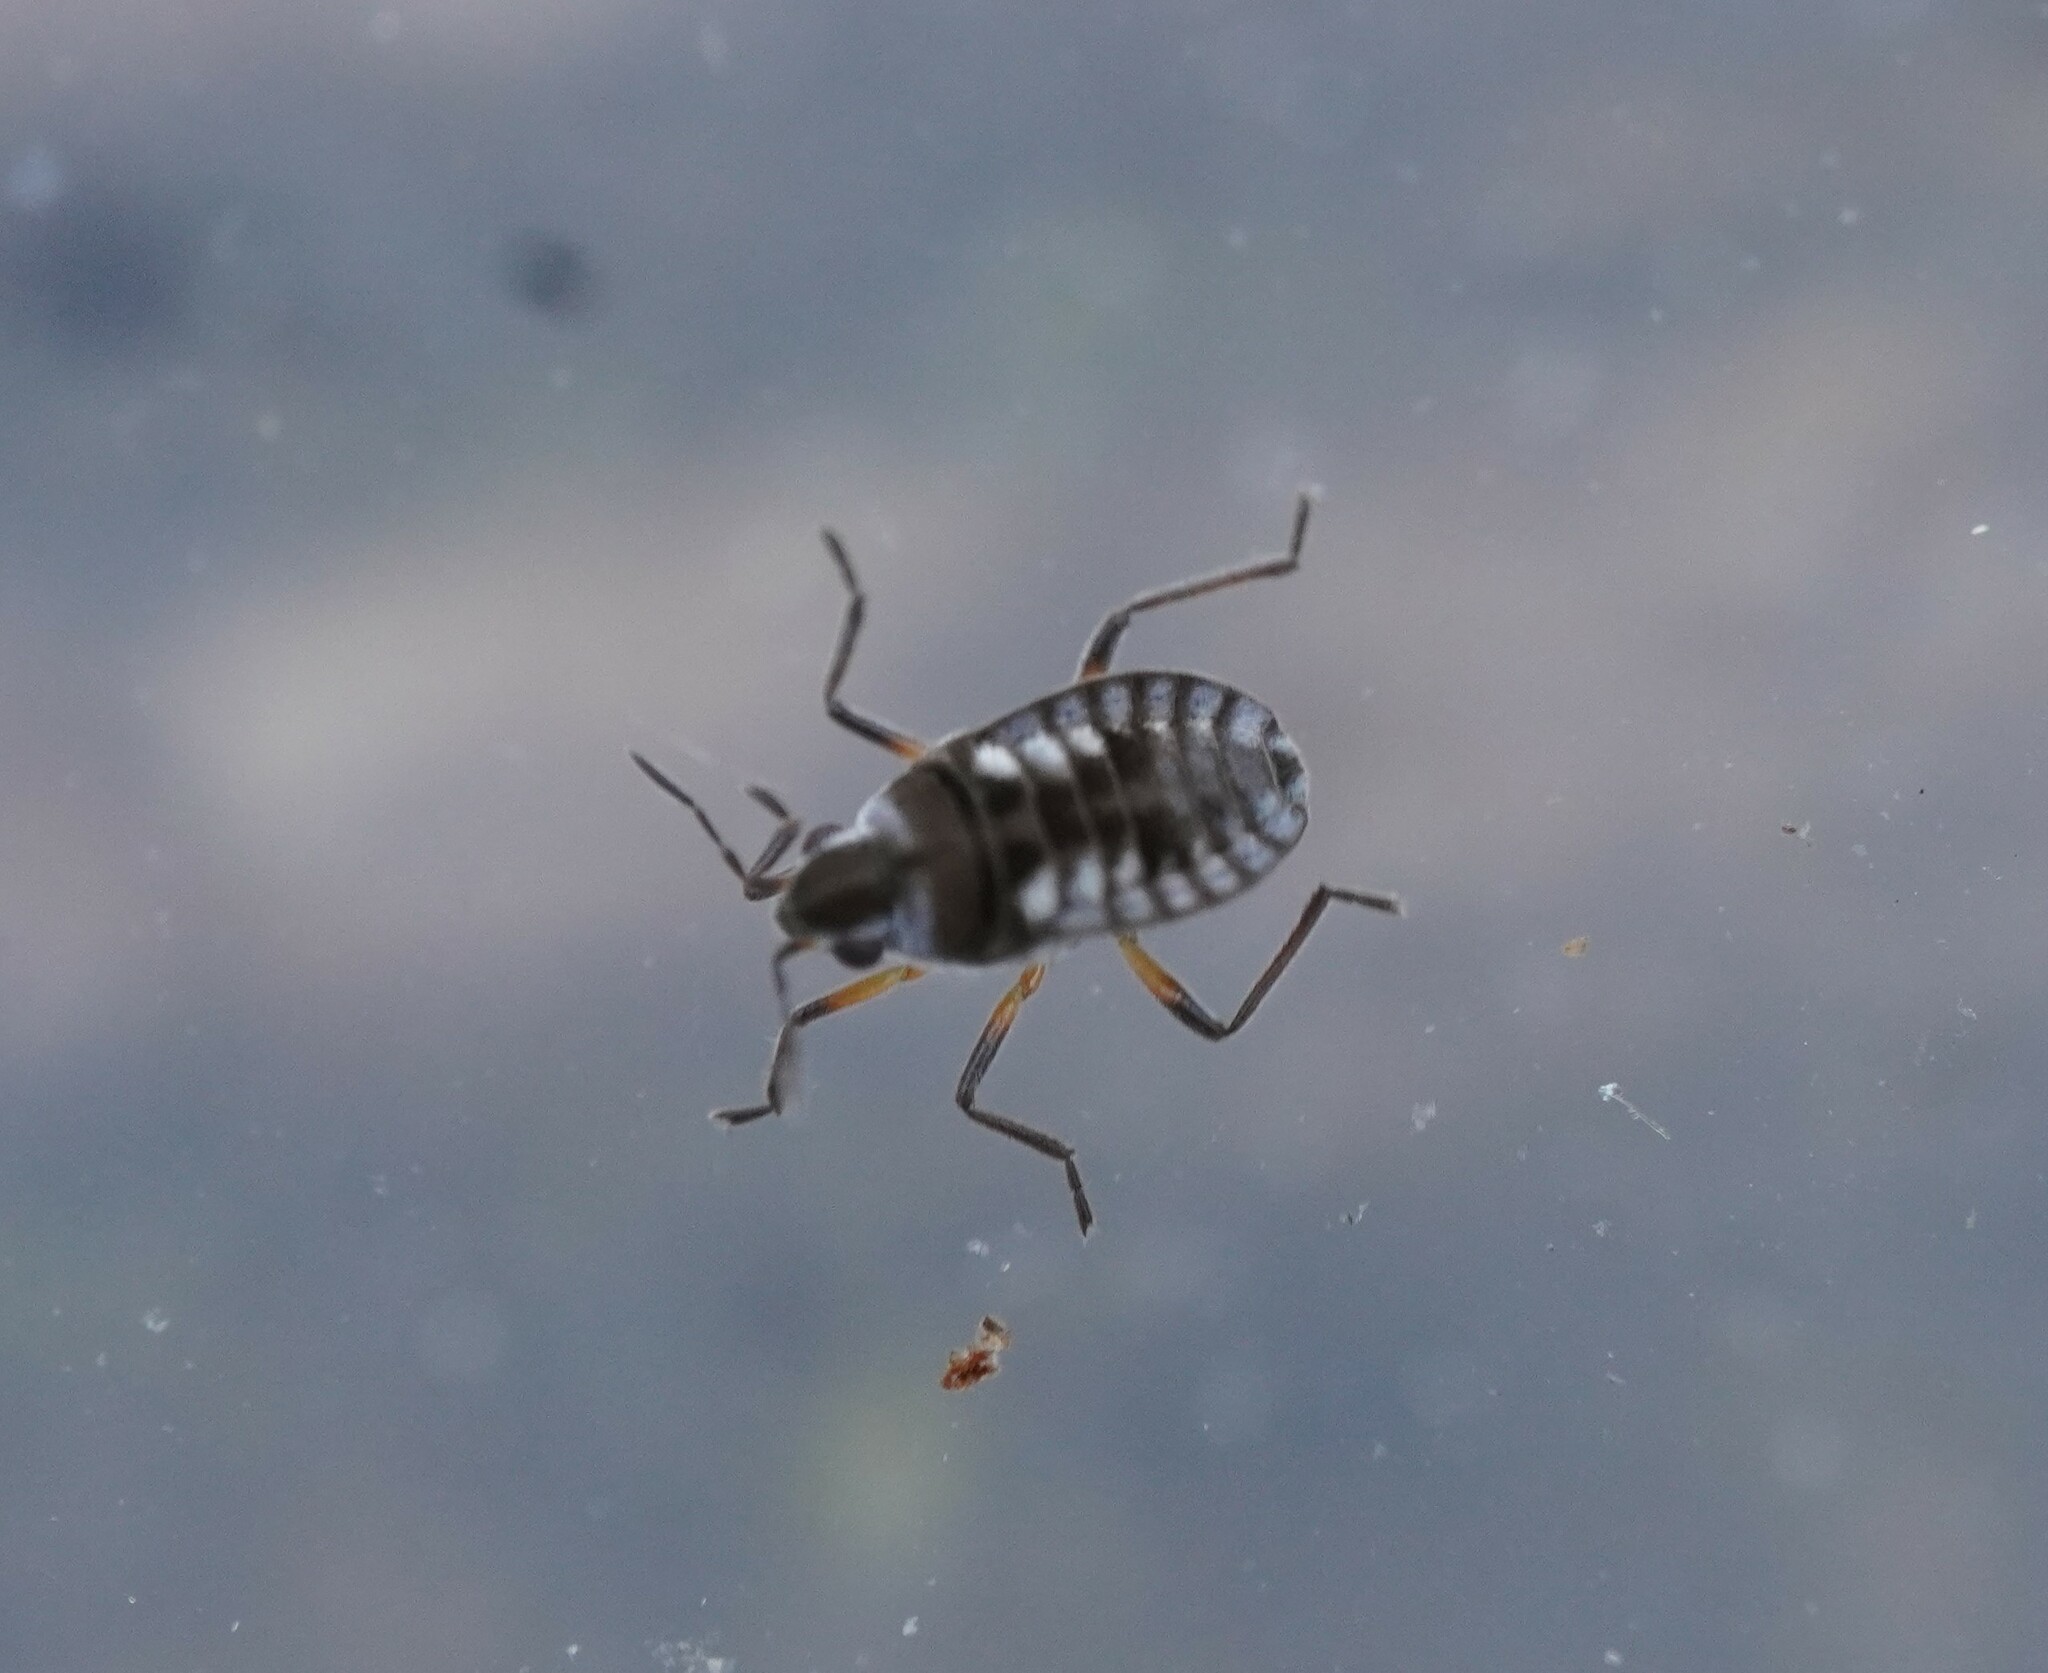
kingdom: Animalia
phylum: Arthropoda
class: Insecta
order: Hemiptera
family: Veliidae
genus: Microvelia
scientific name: Microvelia buenoi
